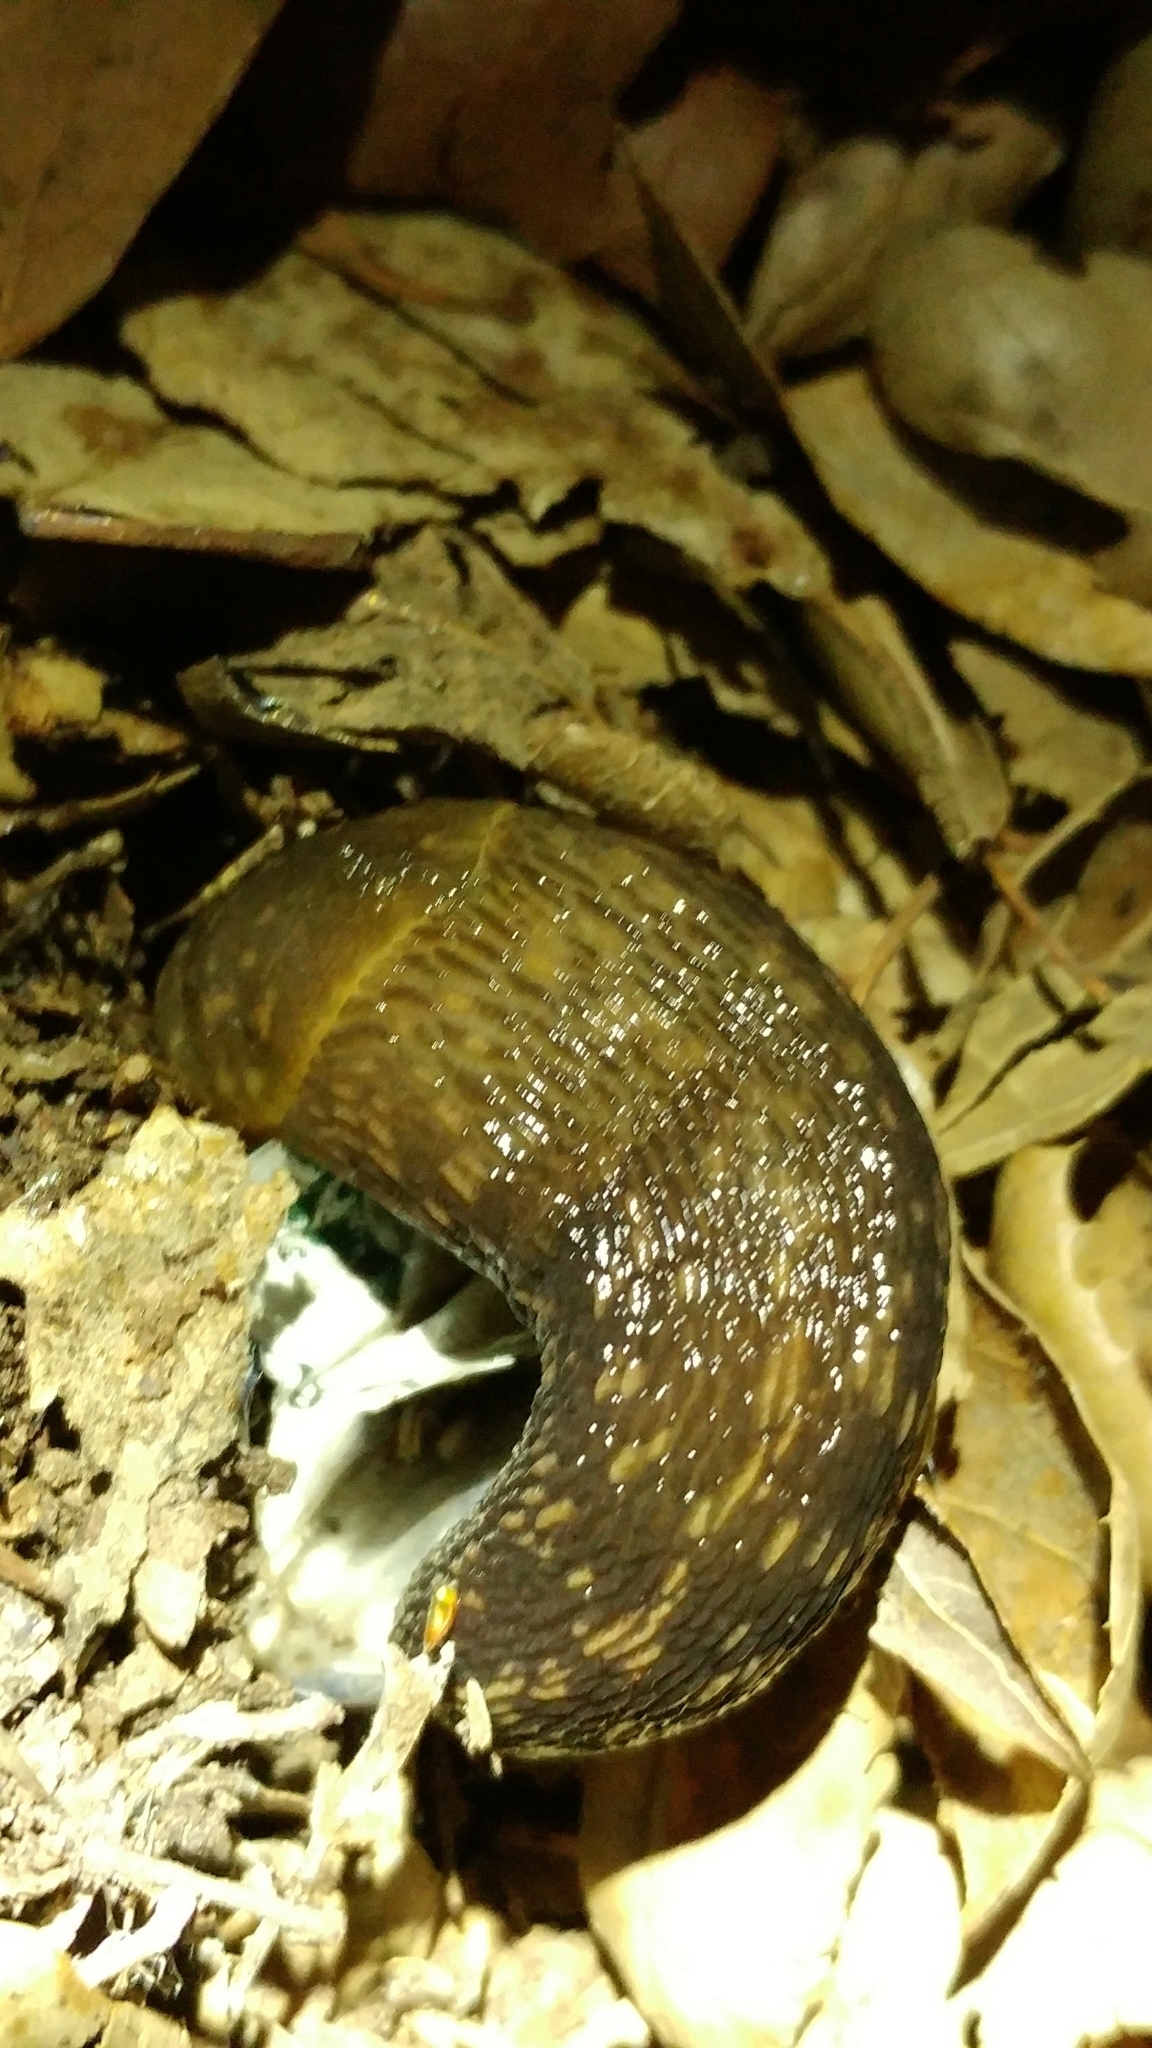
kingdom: Animalia
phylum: Mollusca
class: Gastropoda
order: Stylommatophora
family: Limacidae
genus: Limacus
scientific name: Limacus flavus
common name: Yellow gardenslug
